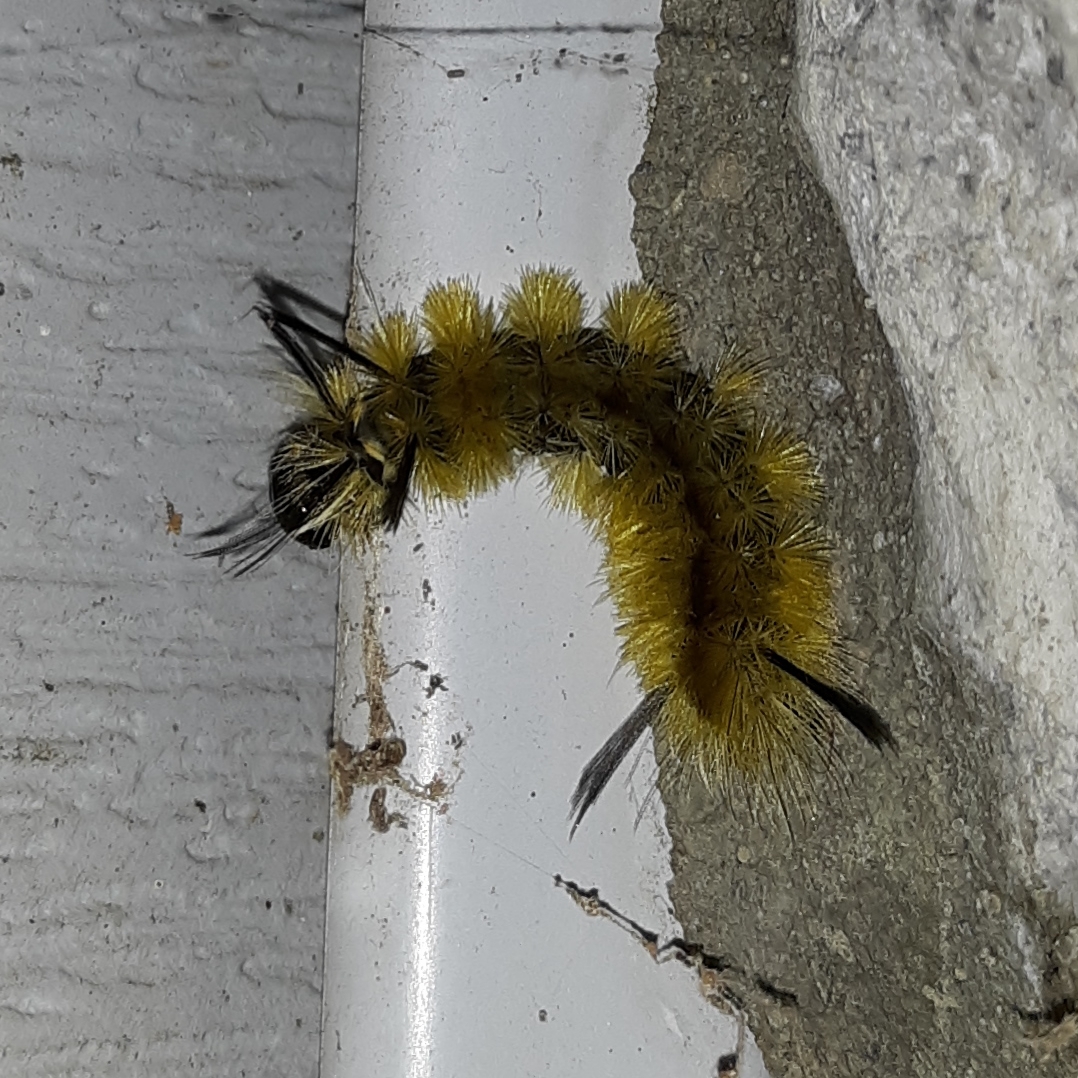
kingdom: Animalia
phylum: Arthropoda
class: Insecta
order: Lepidoptera
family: Erebidae
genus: Halysidota
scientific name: Halysidota tessellaris
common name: Banded tussock moth
